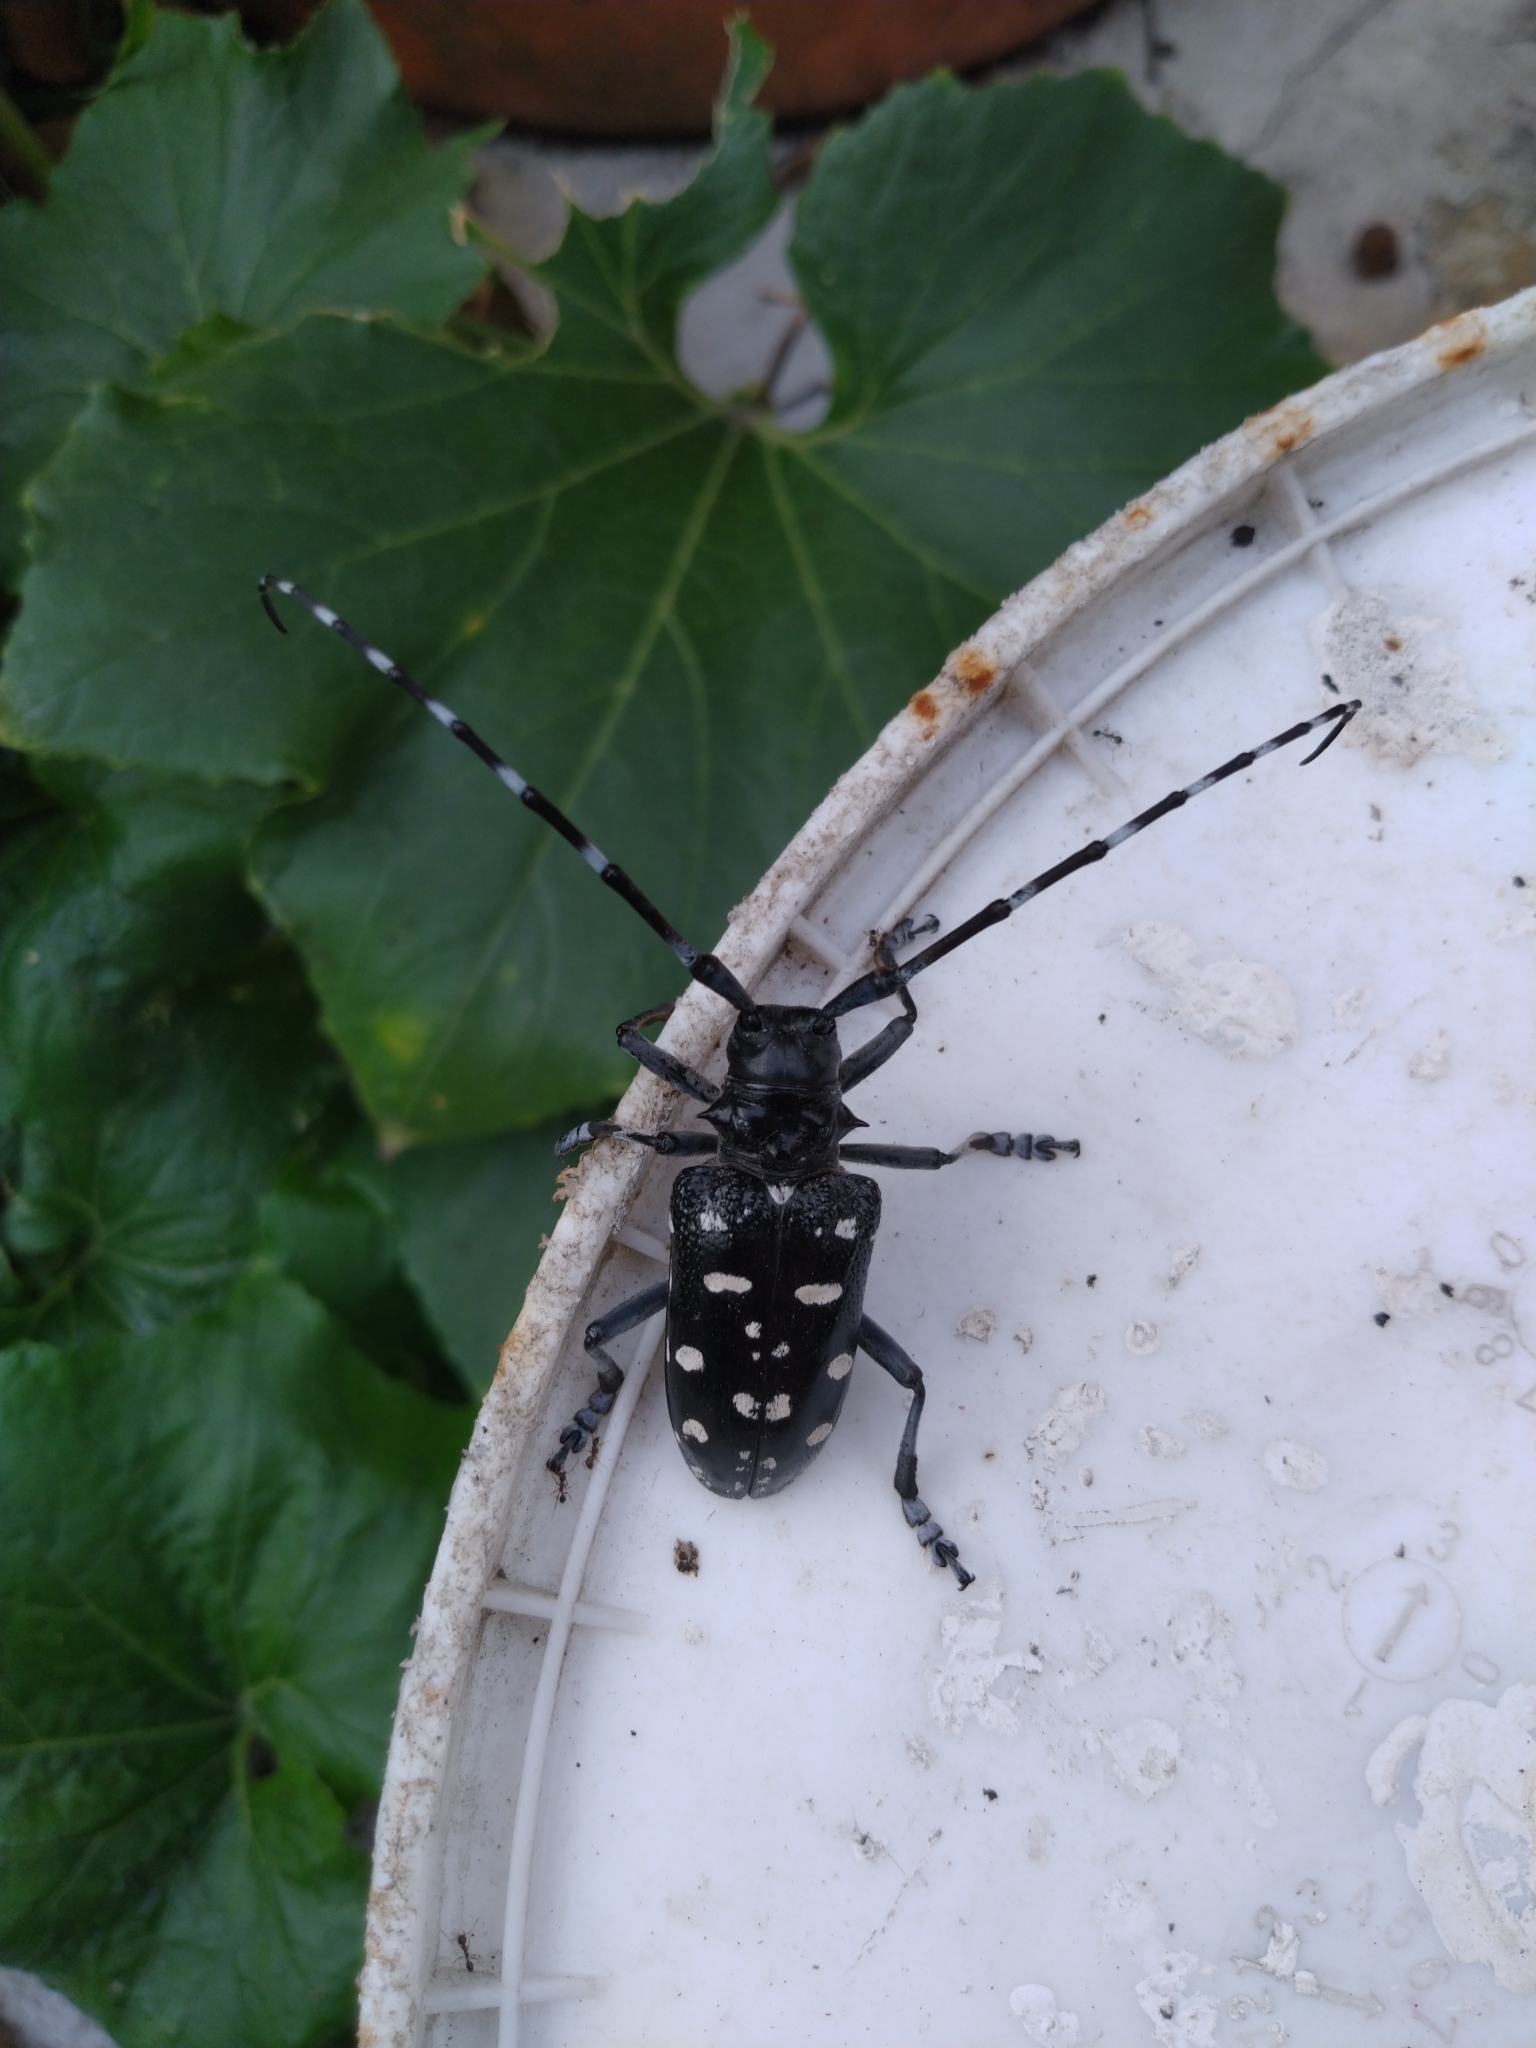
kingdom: Animalia
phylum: Arthropoda
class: Insecta
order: Coleoptera
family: Cerambycidae
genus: Anoplophora
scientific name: Anoplophora macularia
